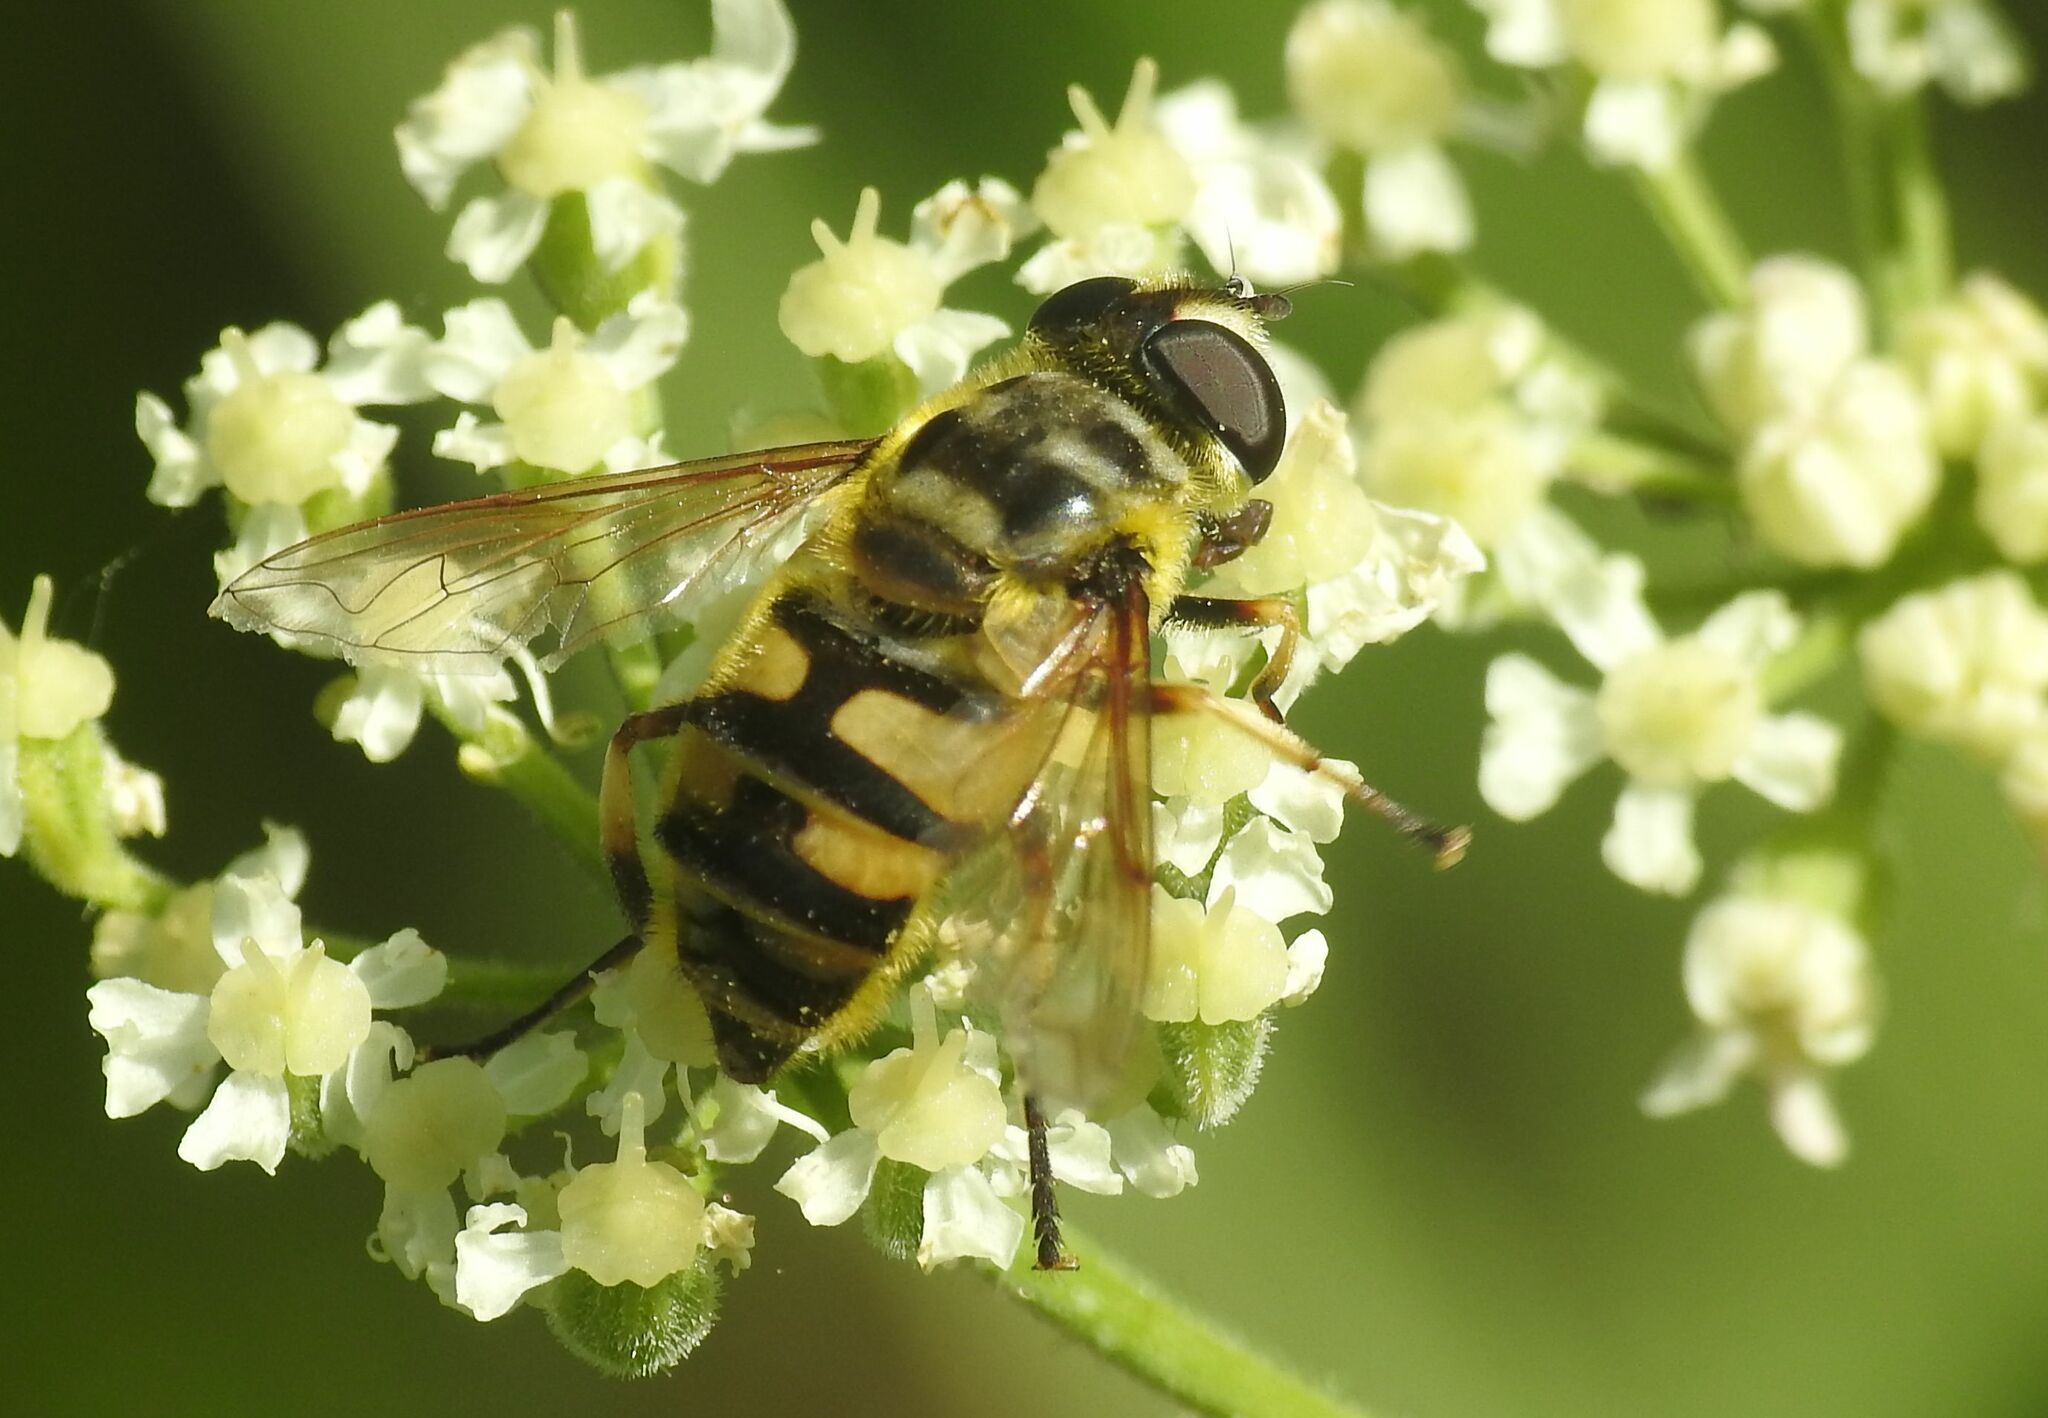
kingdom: Animalia
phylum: Arthropoda
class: Insecta
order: Diptera
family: Syrphidae
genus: Myathropa
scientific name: Myathropa florea
